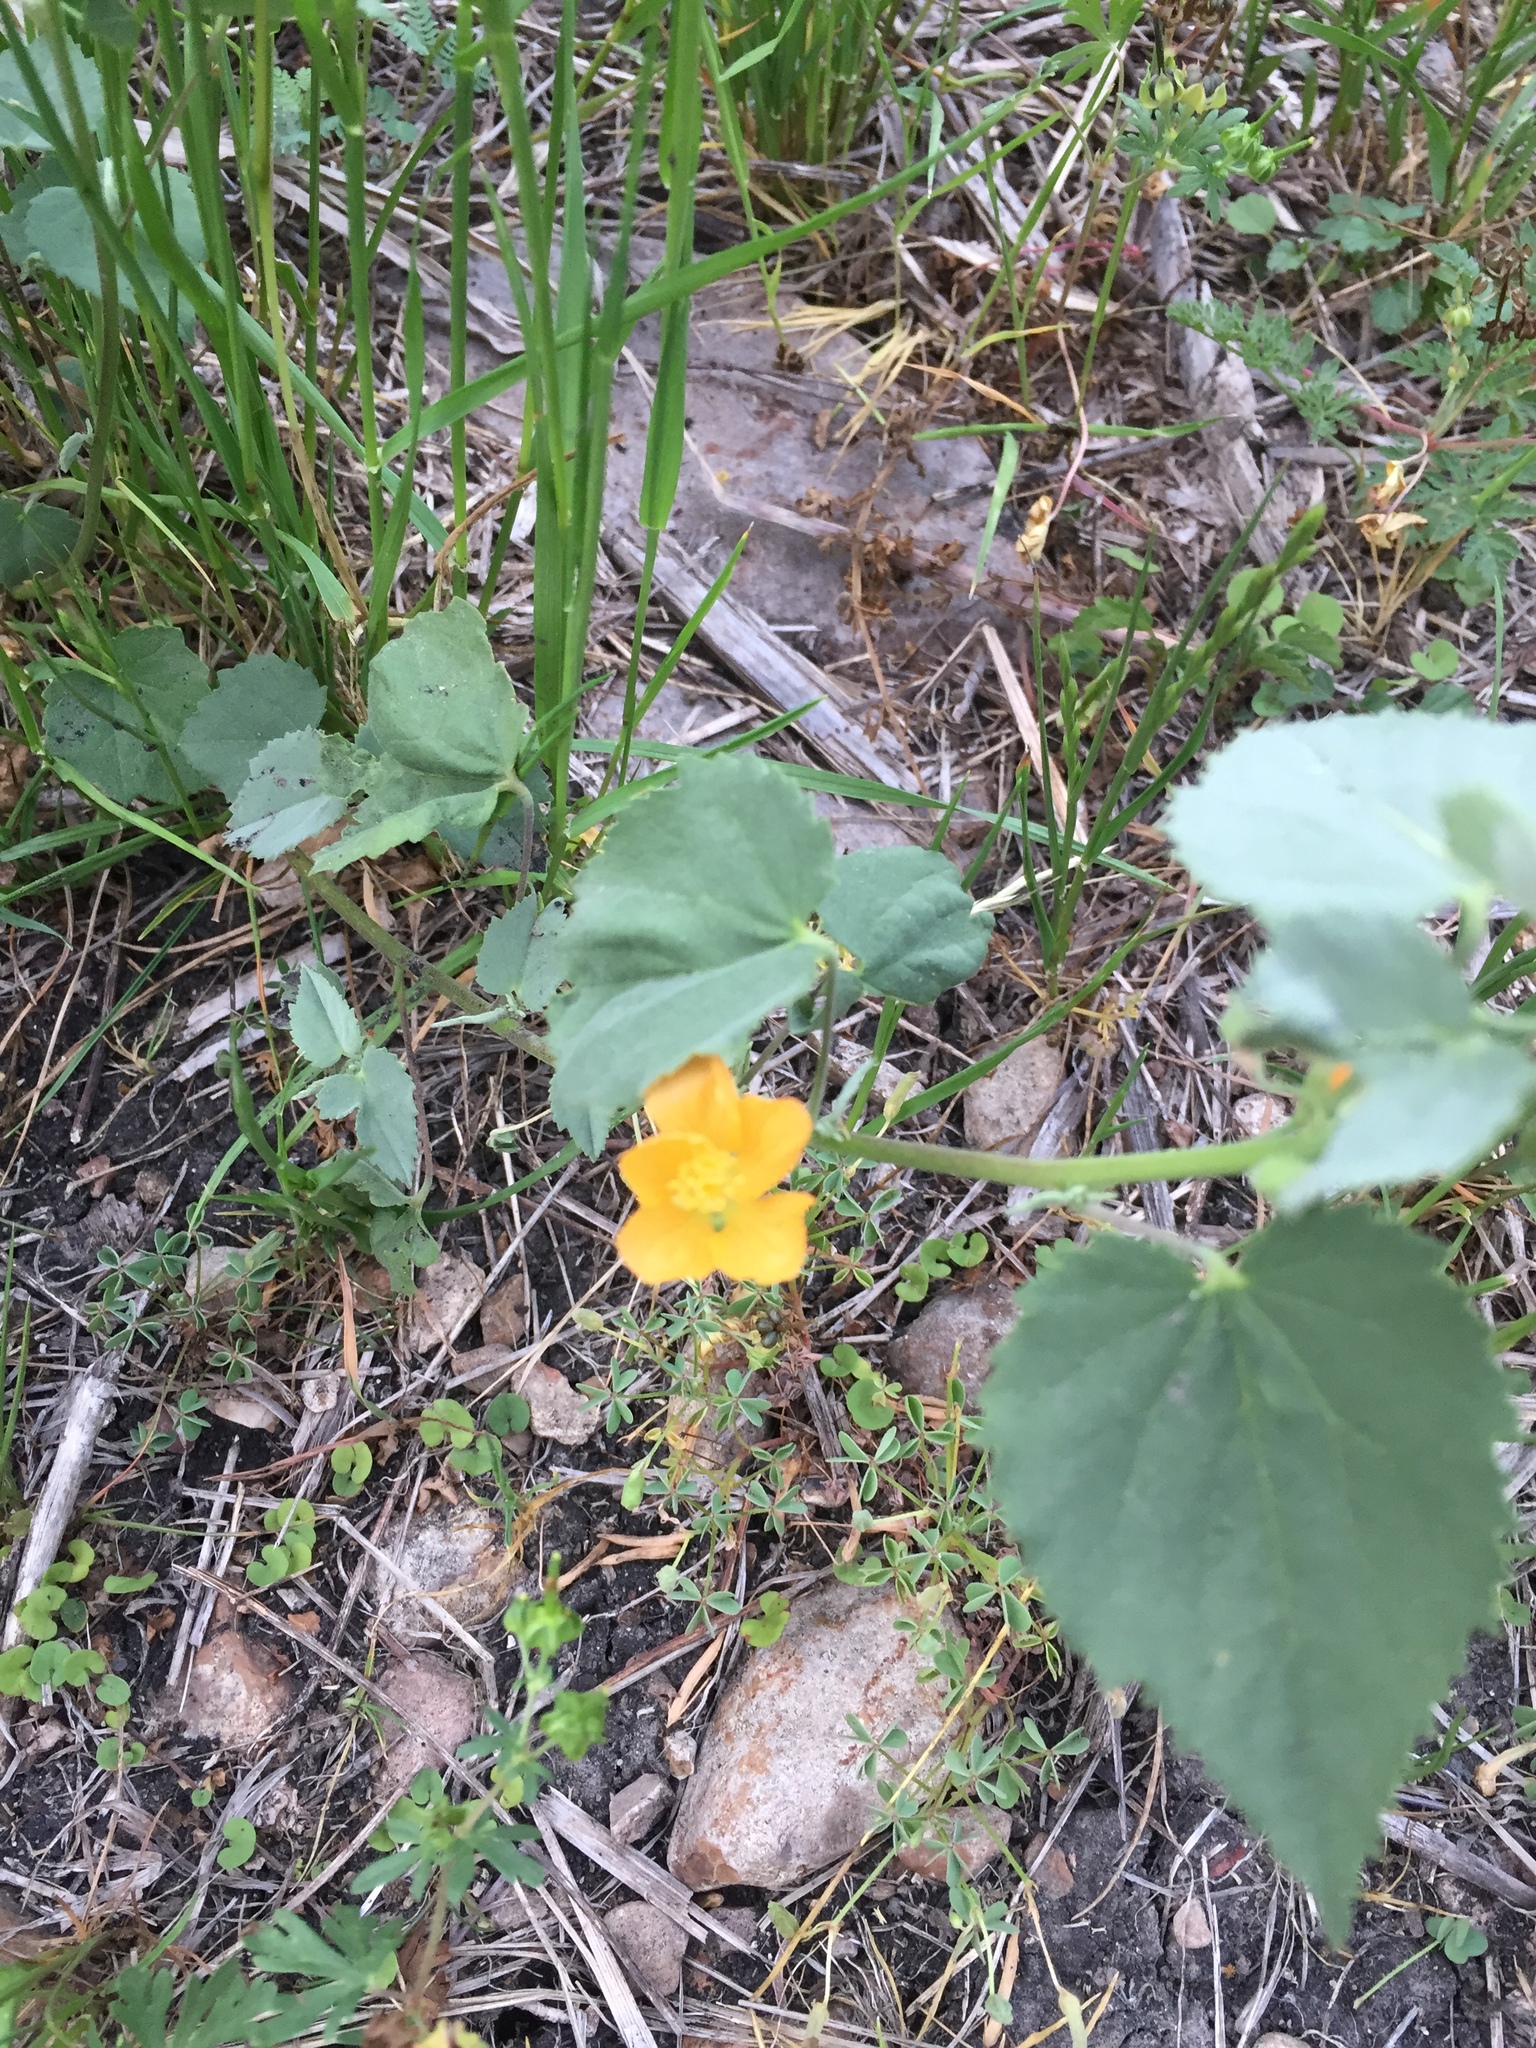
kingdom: Plantae
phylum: Tracheophyta
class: Magnoliopsida
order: Malvales
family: Malvaceae
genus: Allowissadula
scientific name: Allowissadula holosericea
